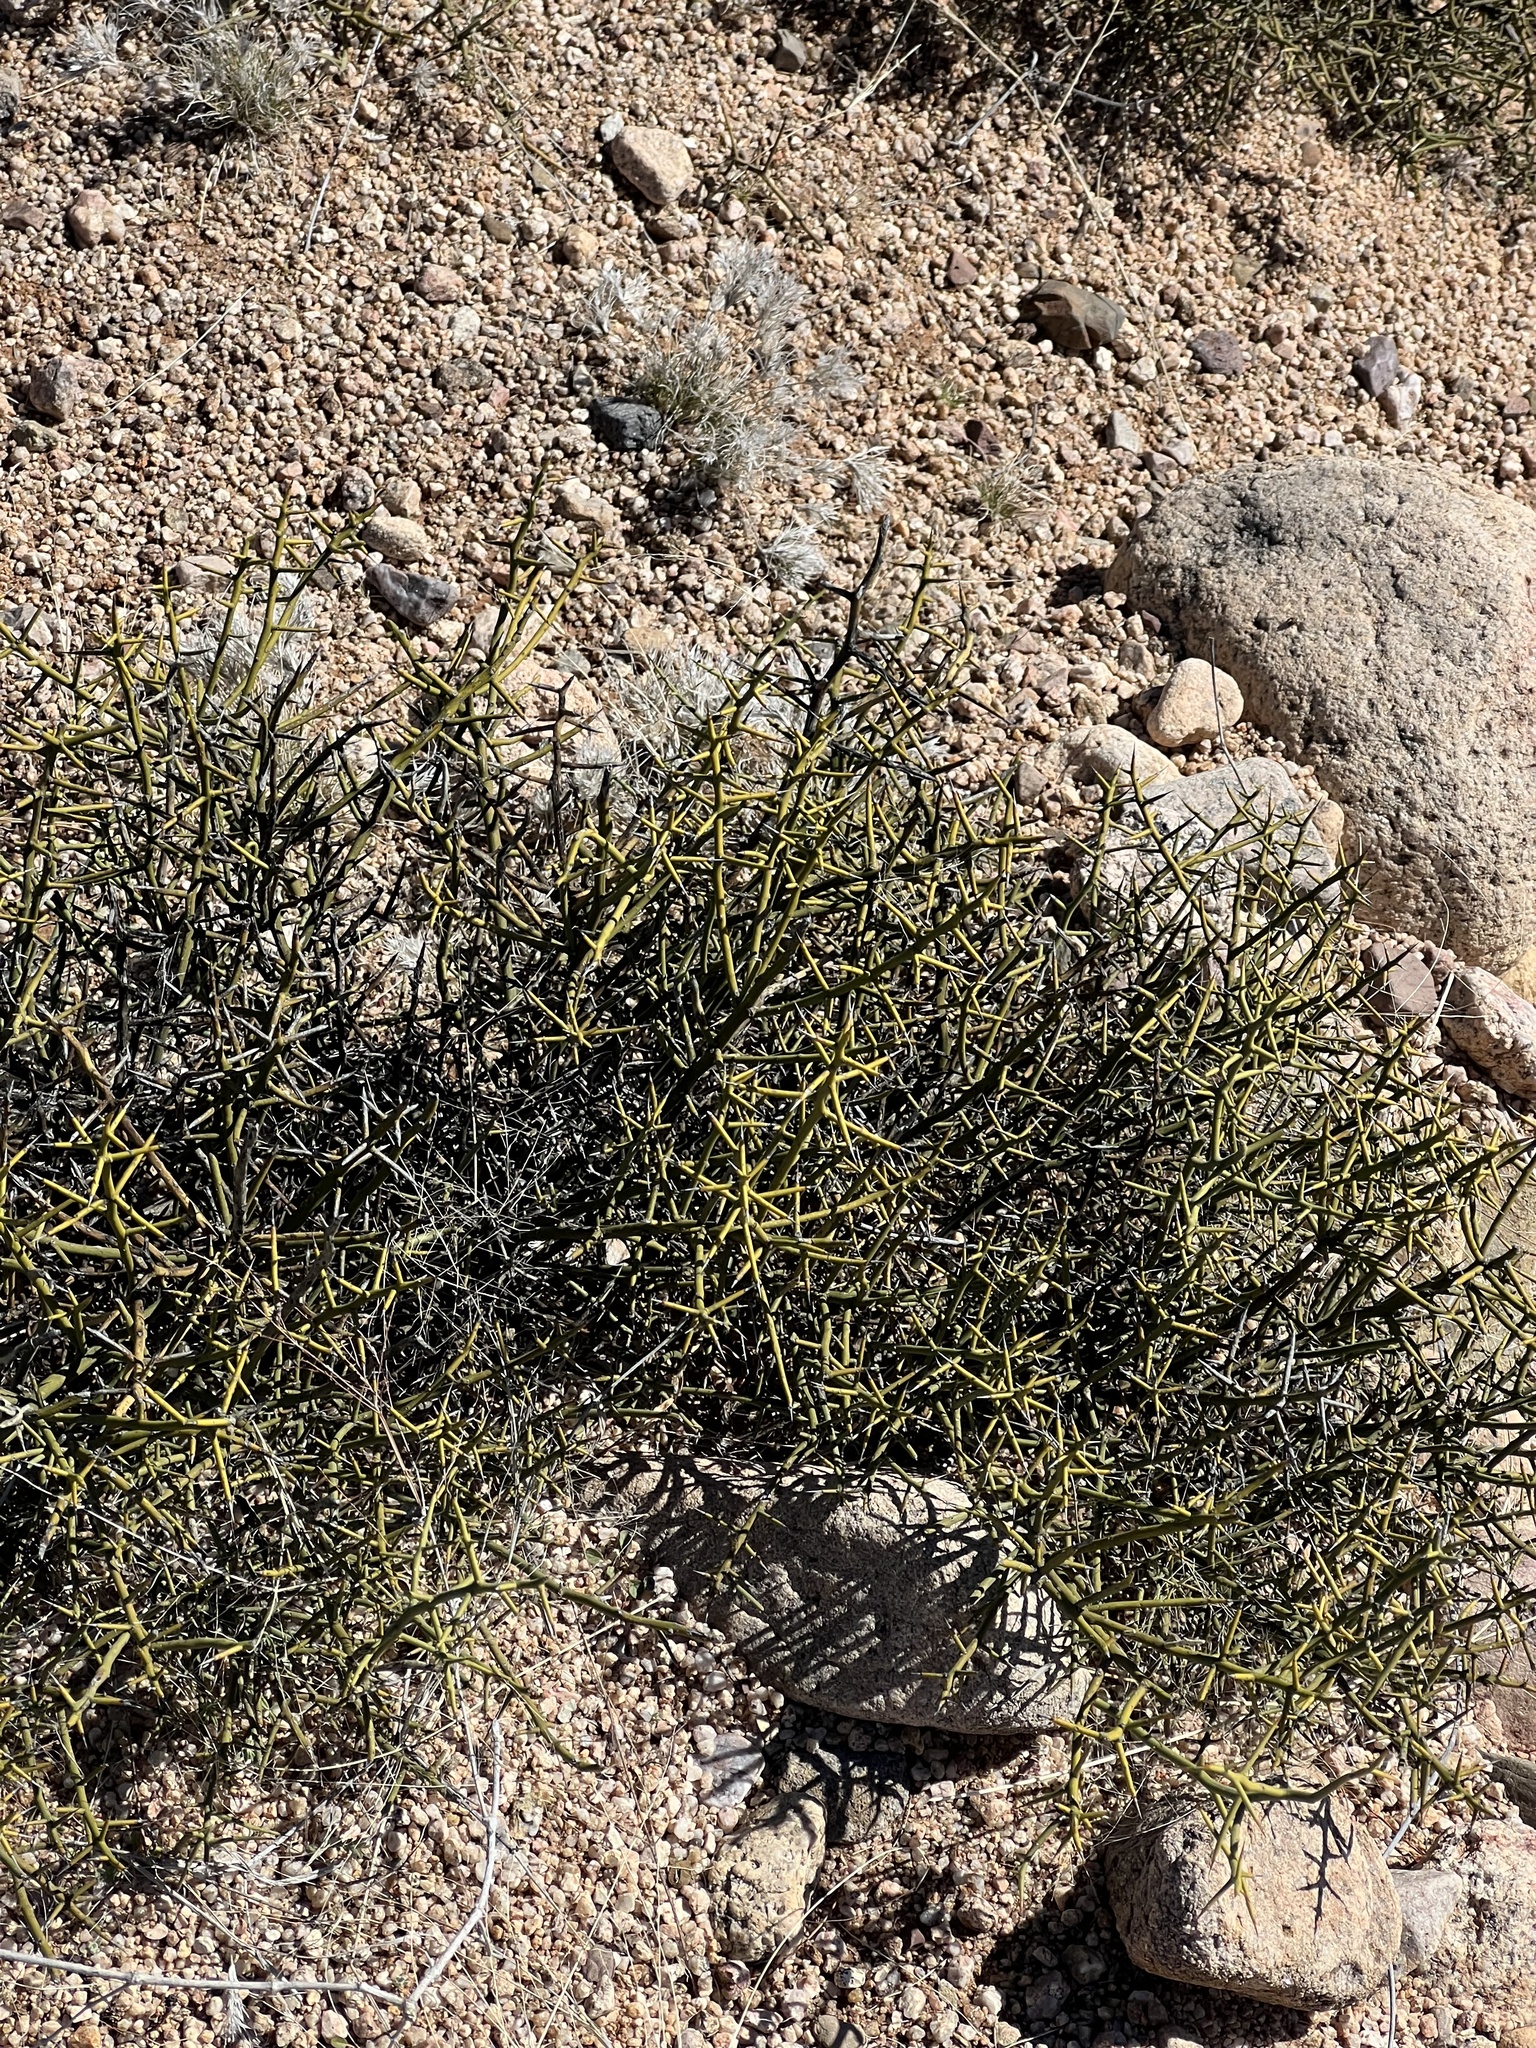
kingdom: Plantae
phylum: Tracheophyta
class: Magnoliopsida
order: Brassicales
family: Koeberliniaceae
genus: Koeberlinia
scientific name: Koeberlinia spinosa
